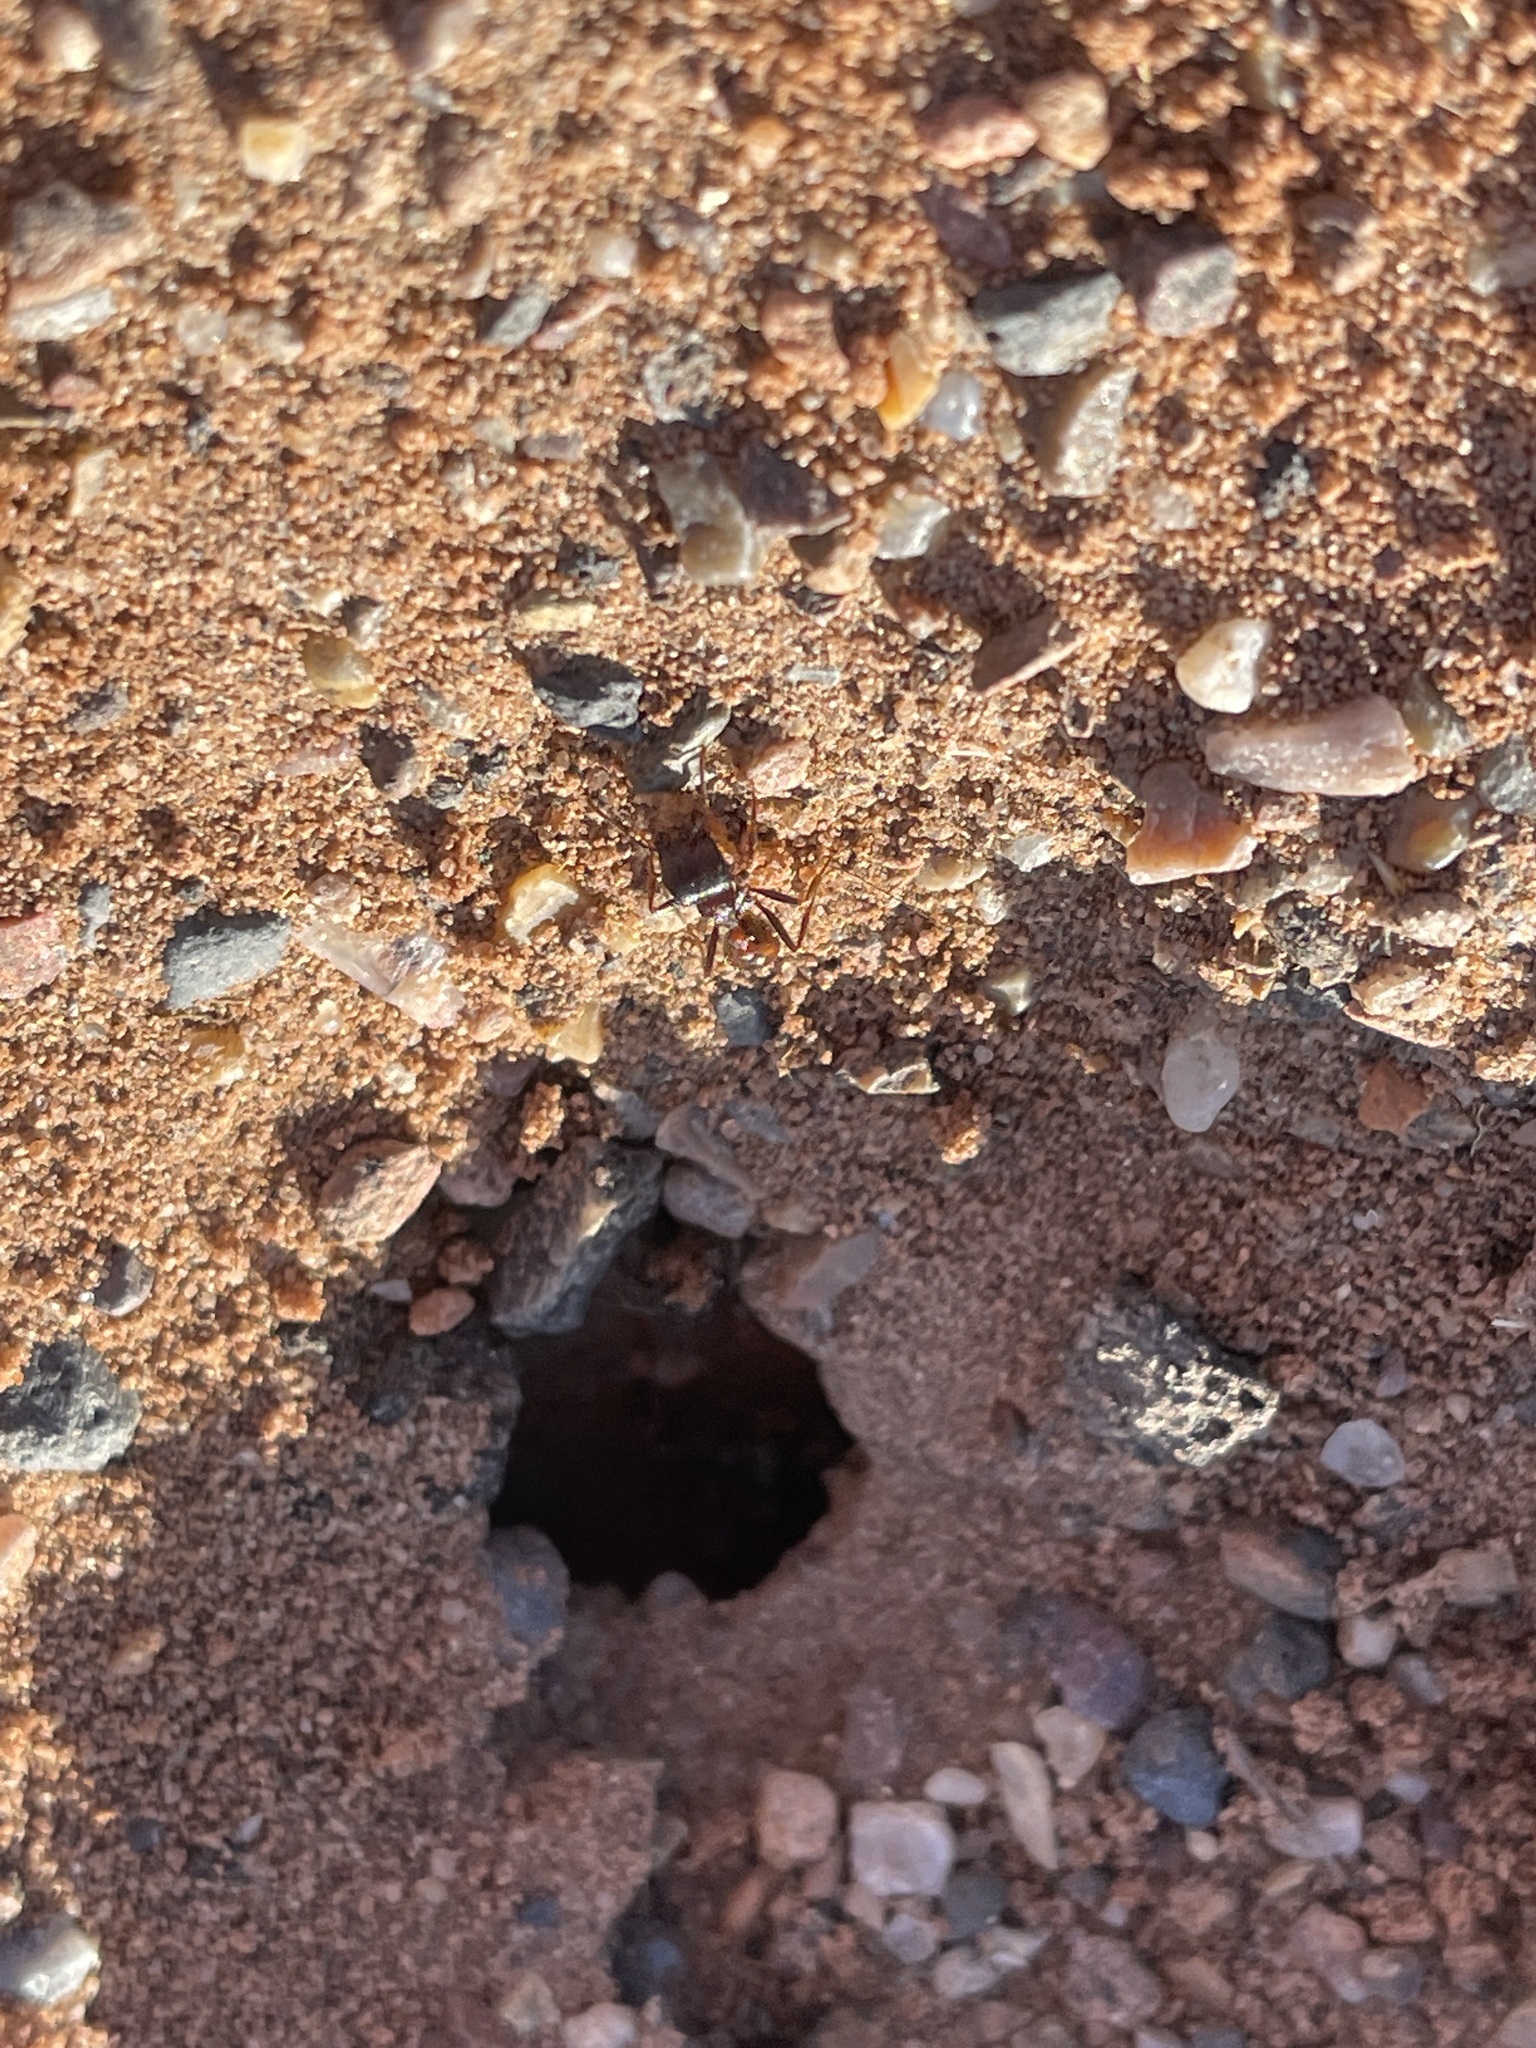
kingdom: Animalia
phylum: Arthropoda
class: Insecta
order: Hymenoptera
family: Formicidae
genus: Pogonomyrmex
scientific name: Pogonomyrmex rugosus
